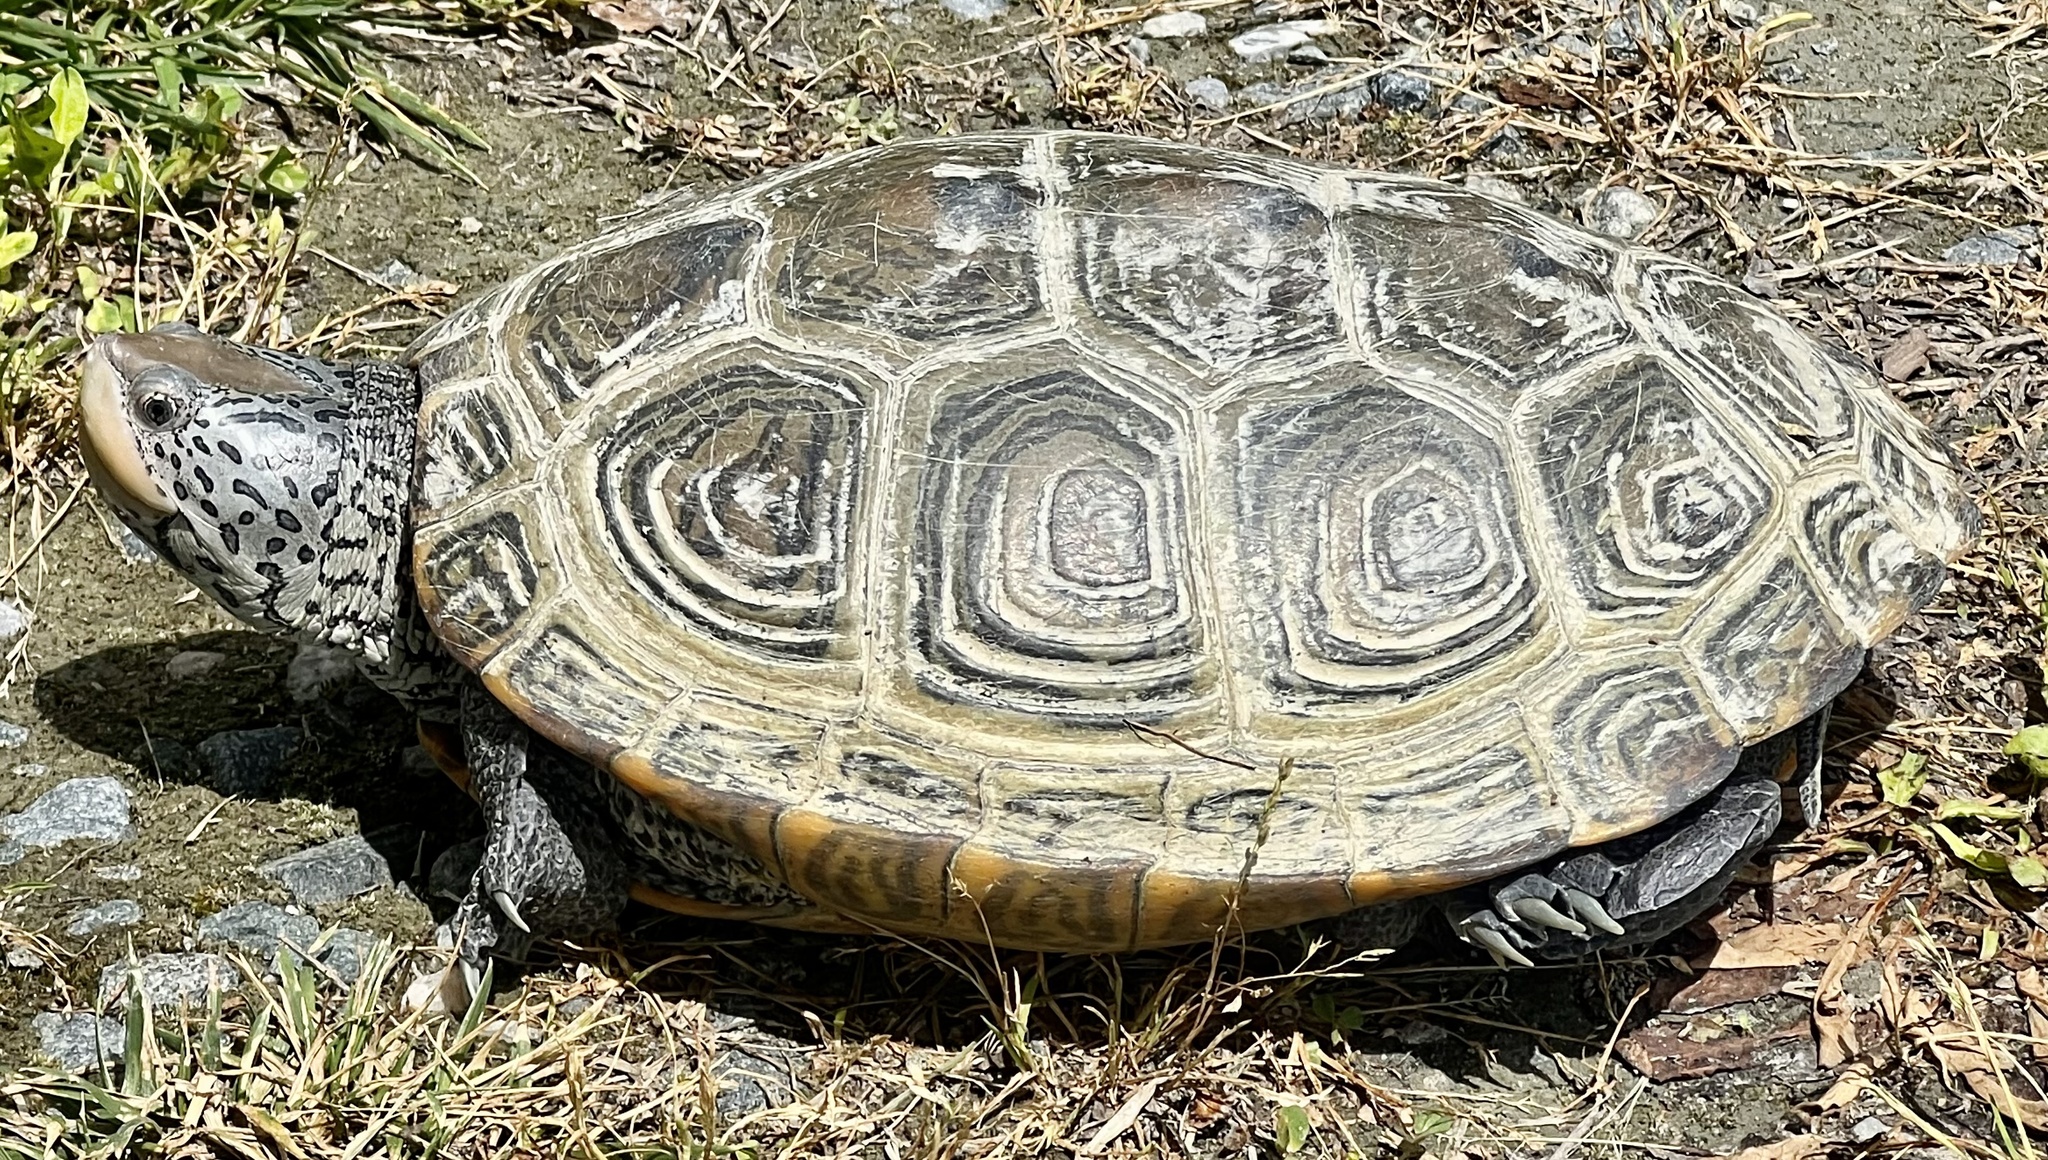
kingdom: Animalia
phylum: Chordata
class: Testudines
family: Emydidae
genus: Malaclemys
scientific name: Malaclemys terrapin
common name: Diamondback terrapin
